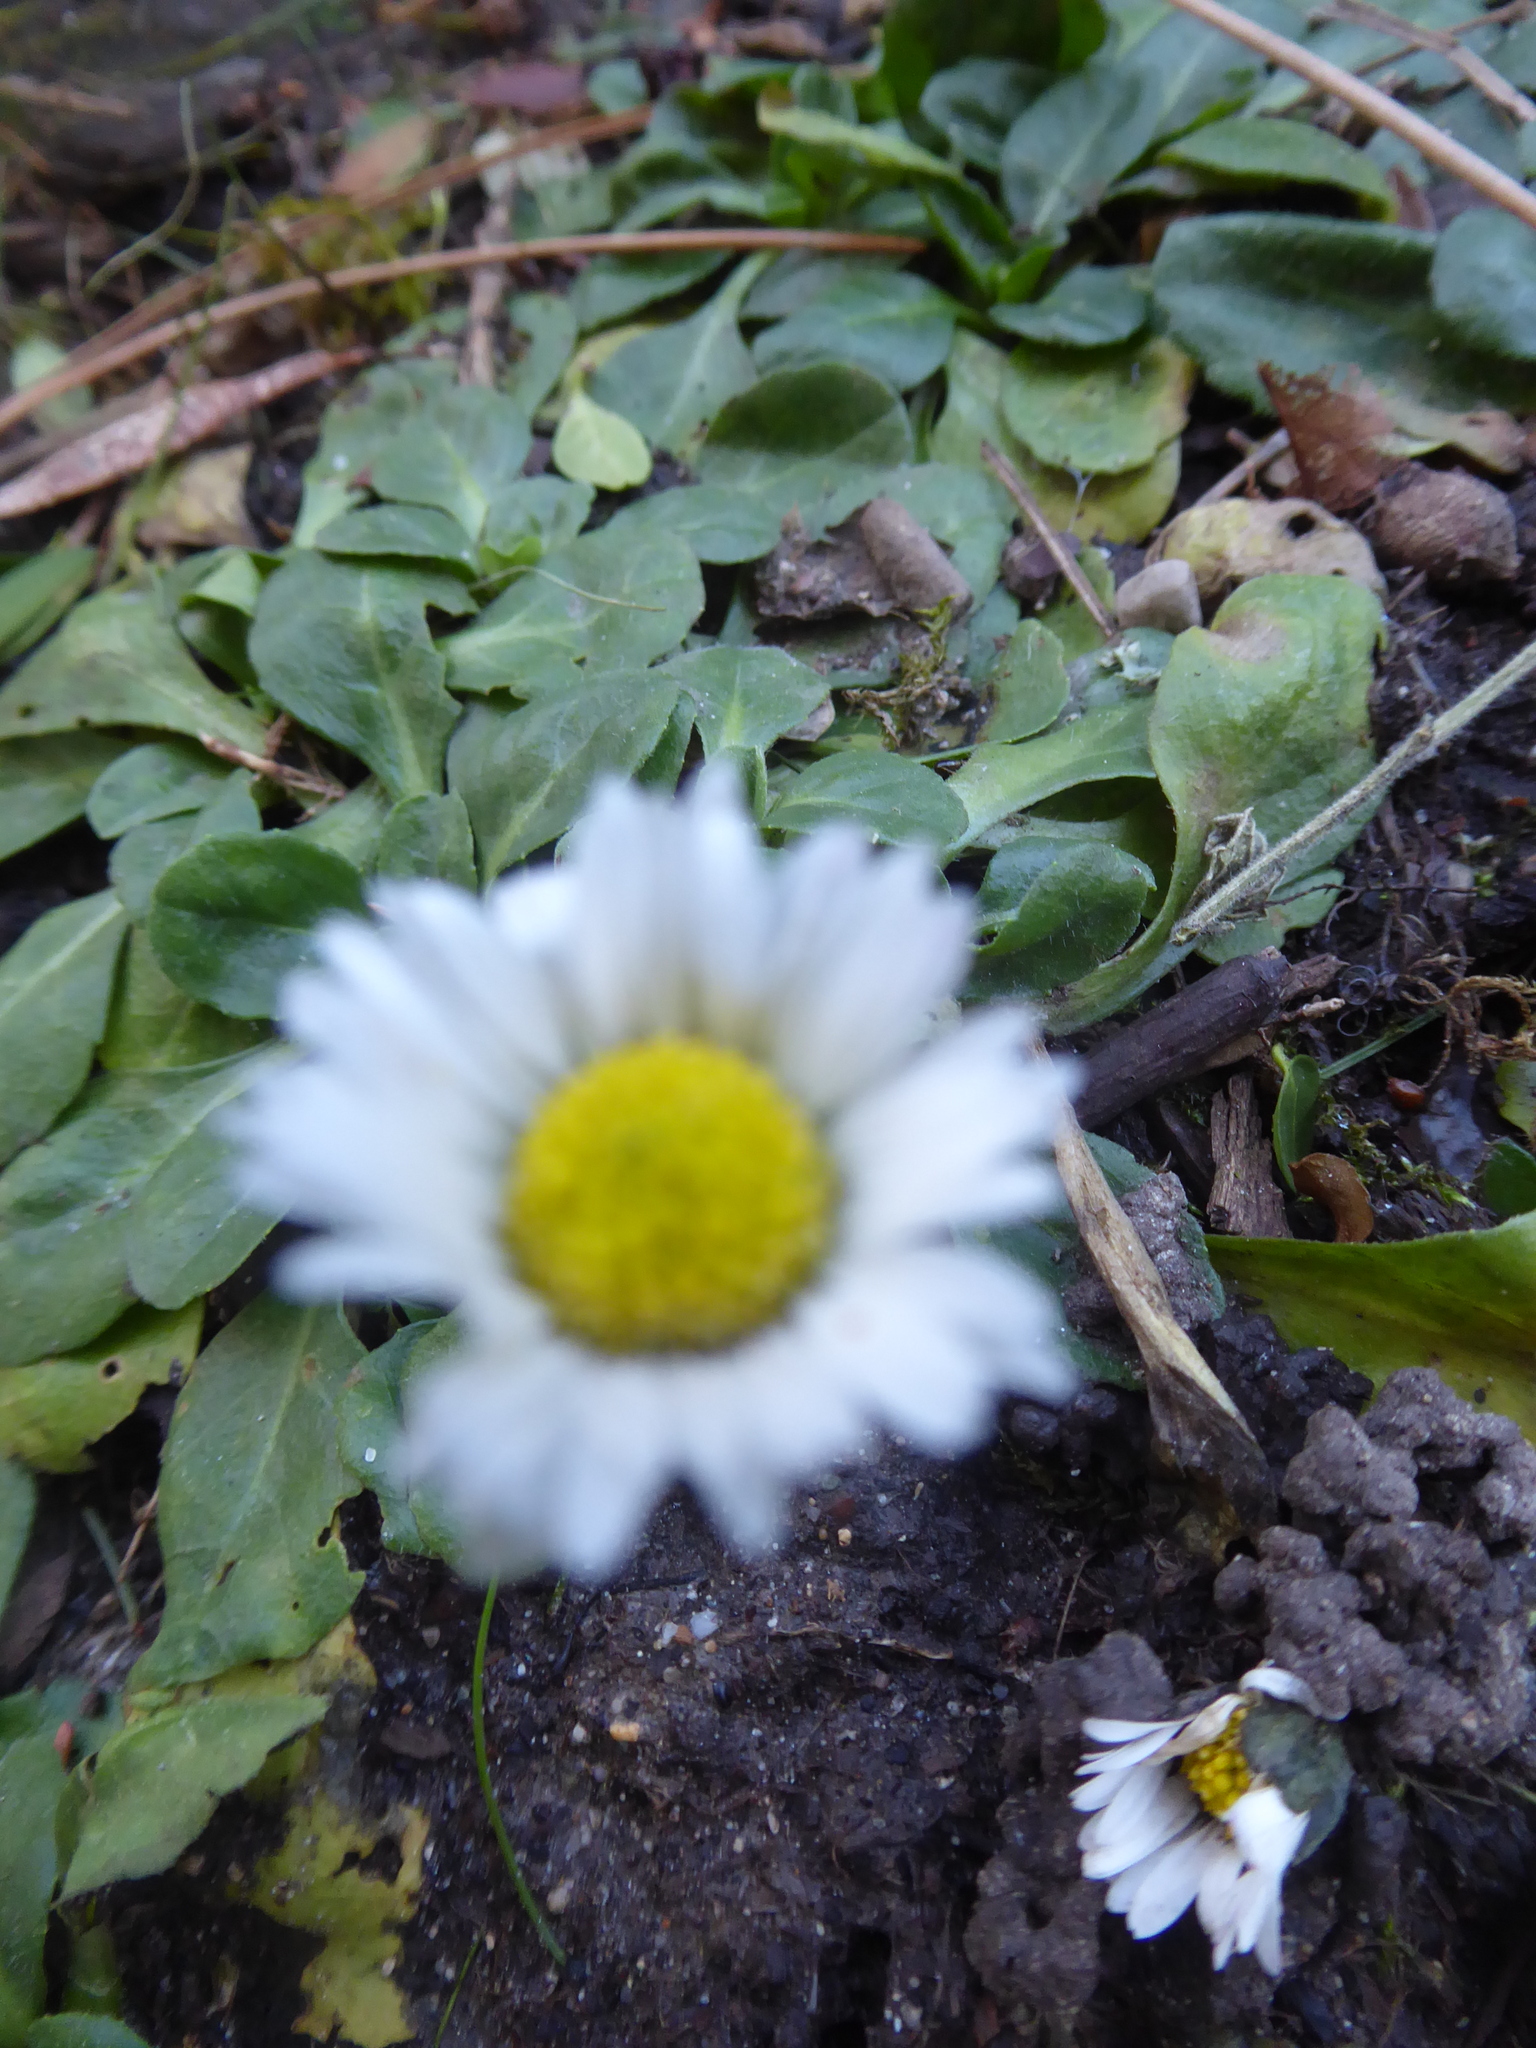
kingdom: Plantae
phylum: Tracheophyta
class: Magnoliopsida
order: Asterales
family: Asteraceae
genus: Bellis
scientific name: Bellis perennis
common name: Lawndaisy
